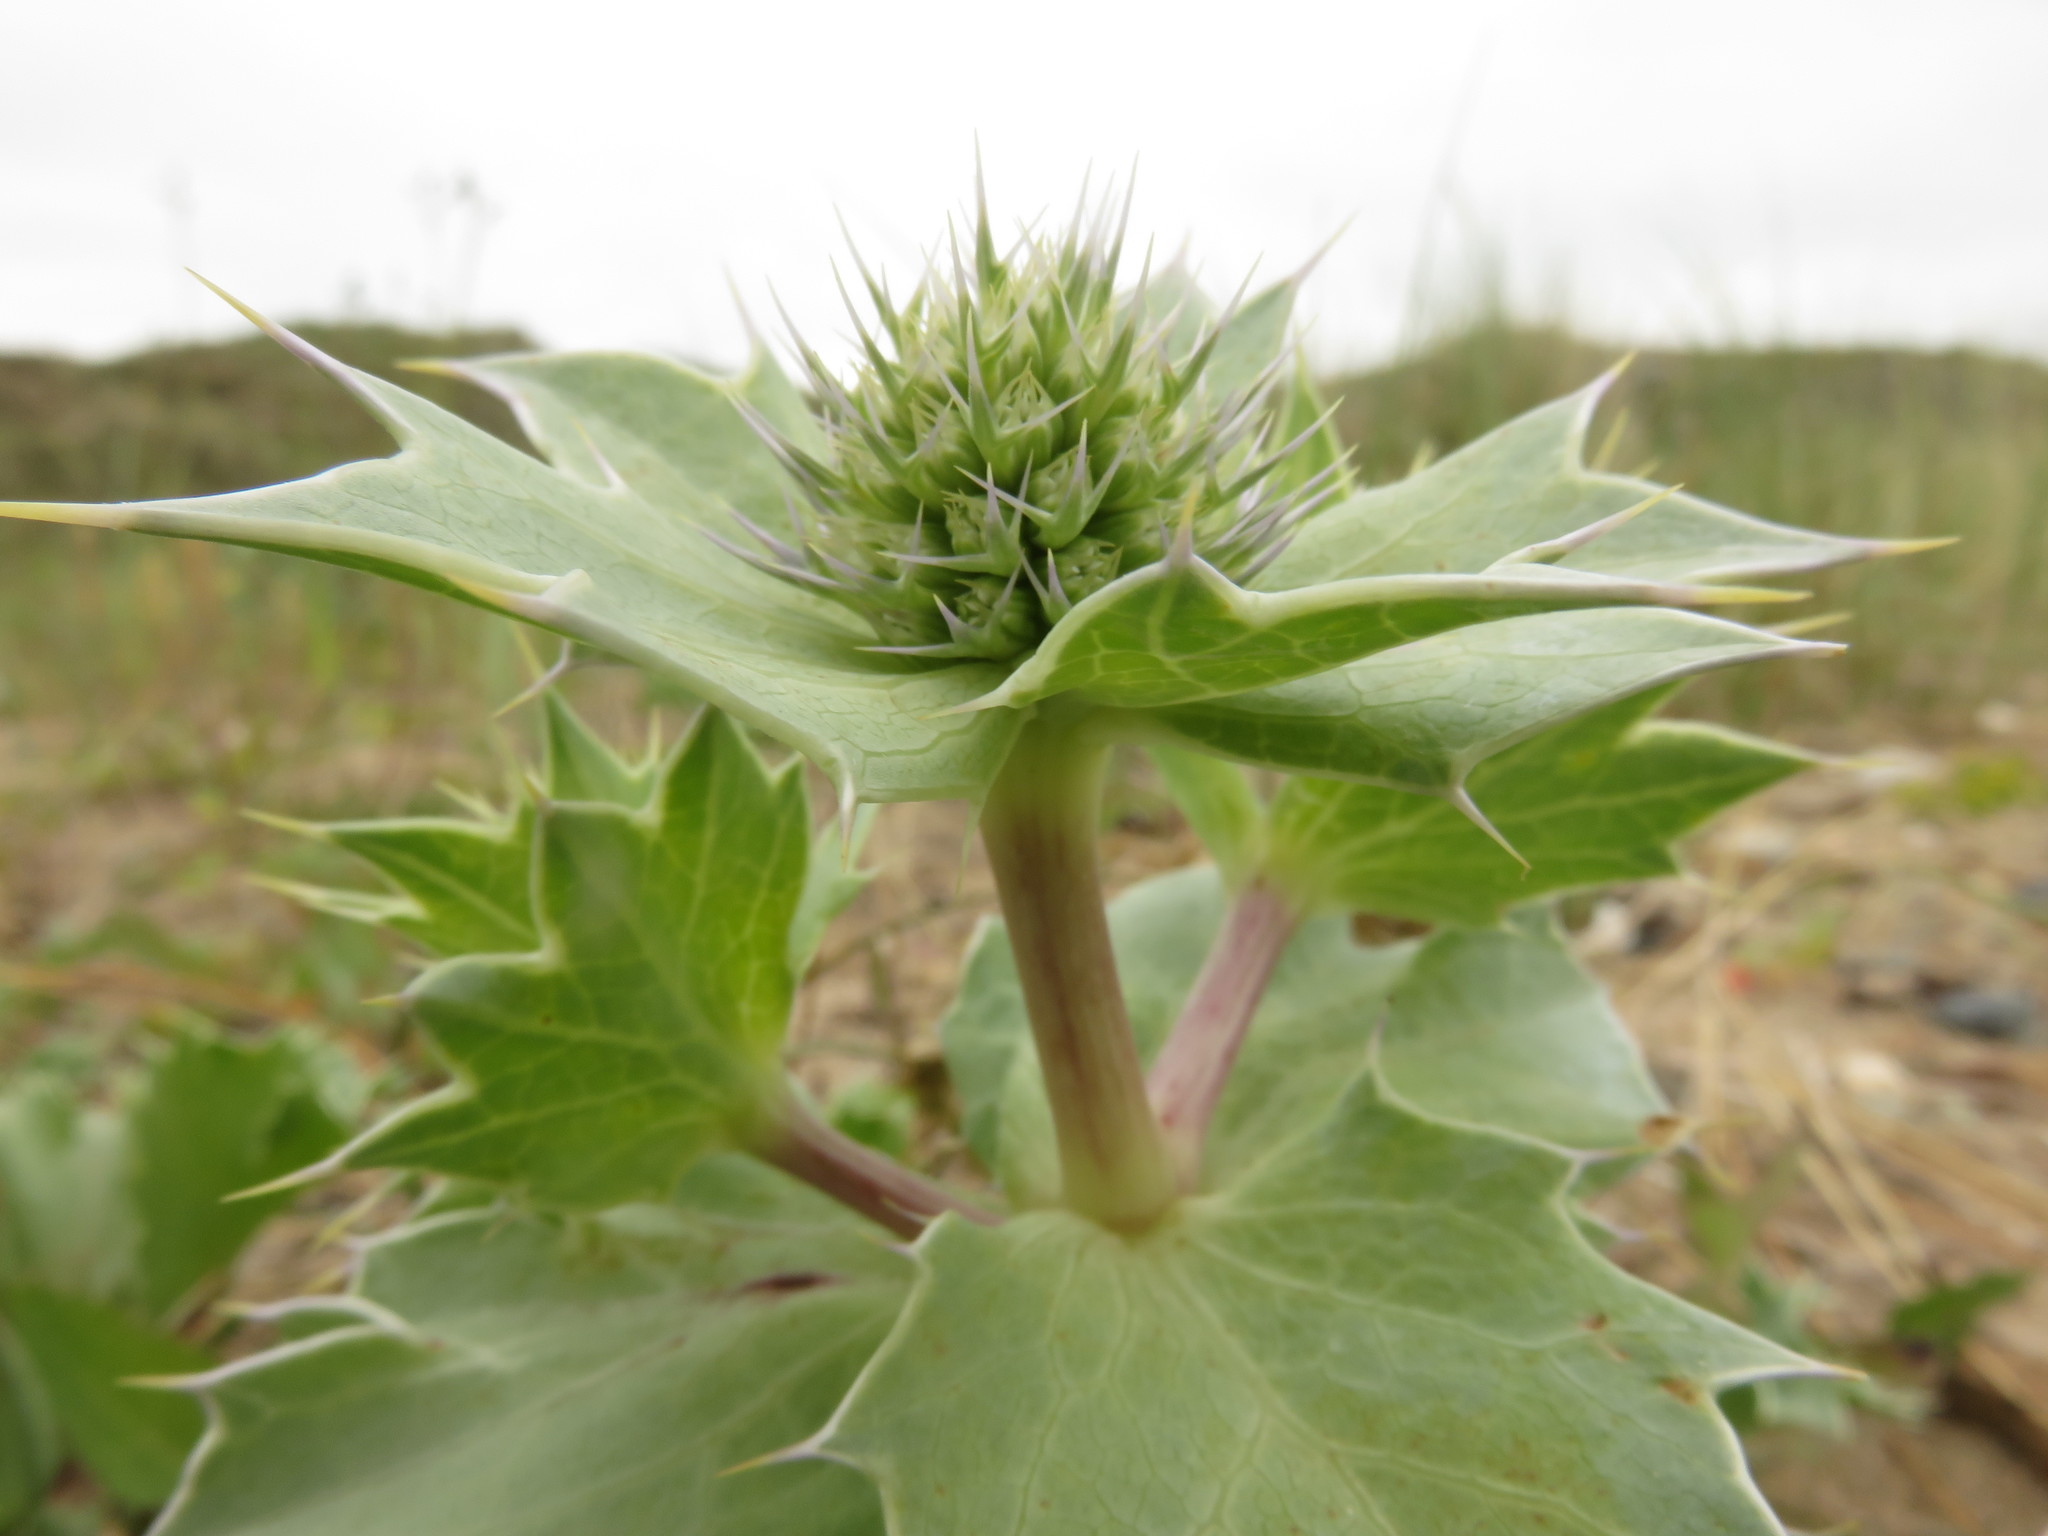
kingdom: Plantae
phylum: Tracheophyta
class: Magnoliopsida
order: Apiales
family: Apiaceae
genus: Eryngium
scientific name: Eryngium maritimum
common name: Sea-holly
